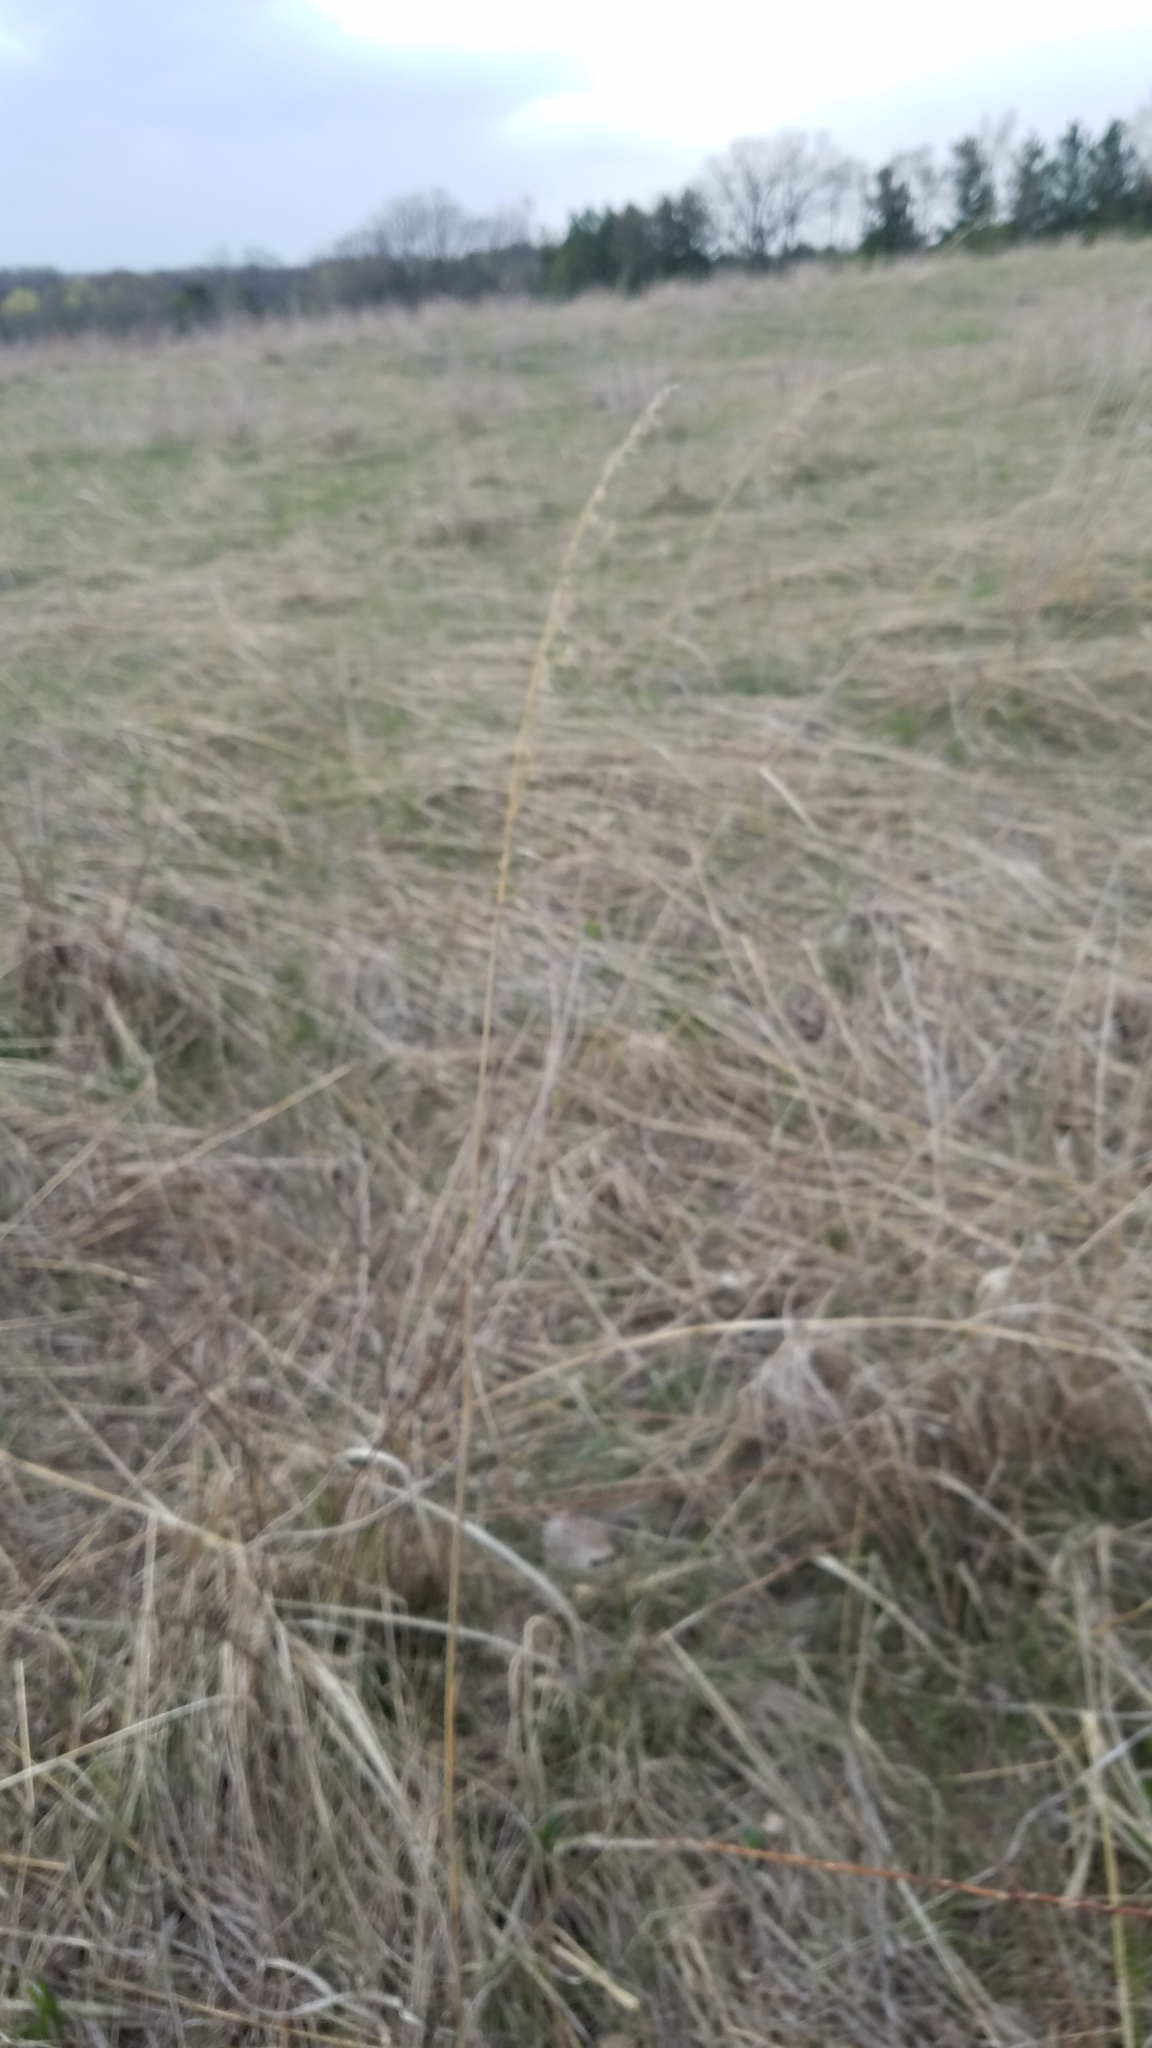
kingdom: Plantae
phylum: Tracheophyta
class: Liliopsida
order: Poales
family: Poaceae
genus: Sorghastrum
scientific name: Sorghastrum nutans
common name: Indian grass
